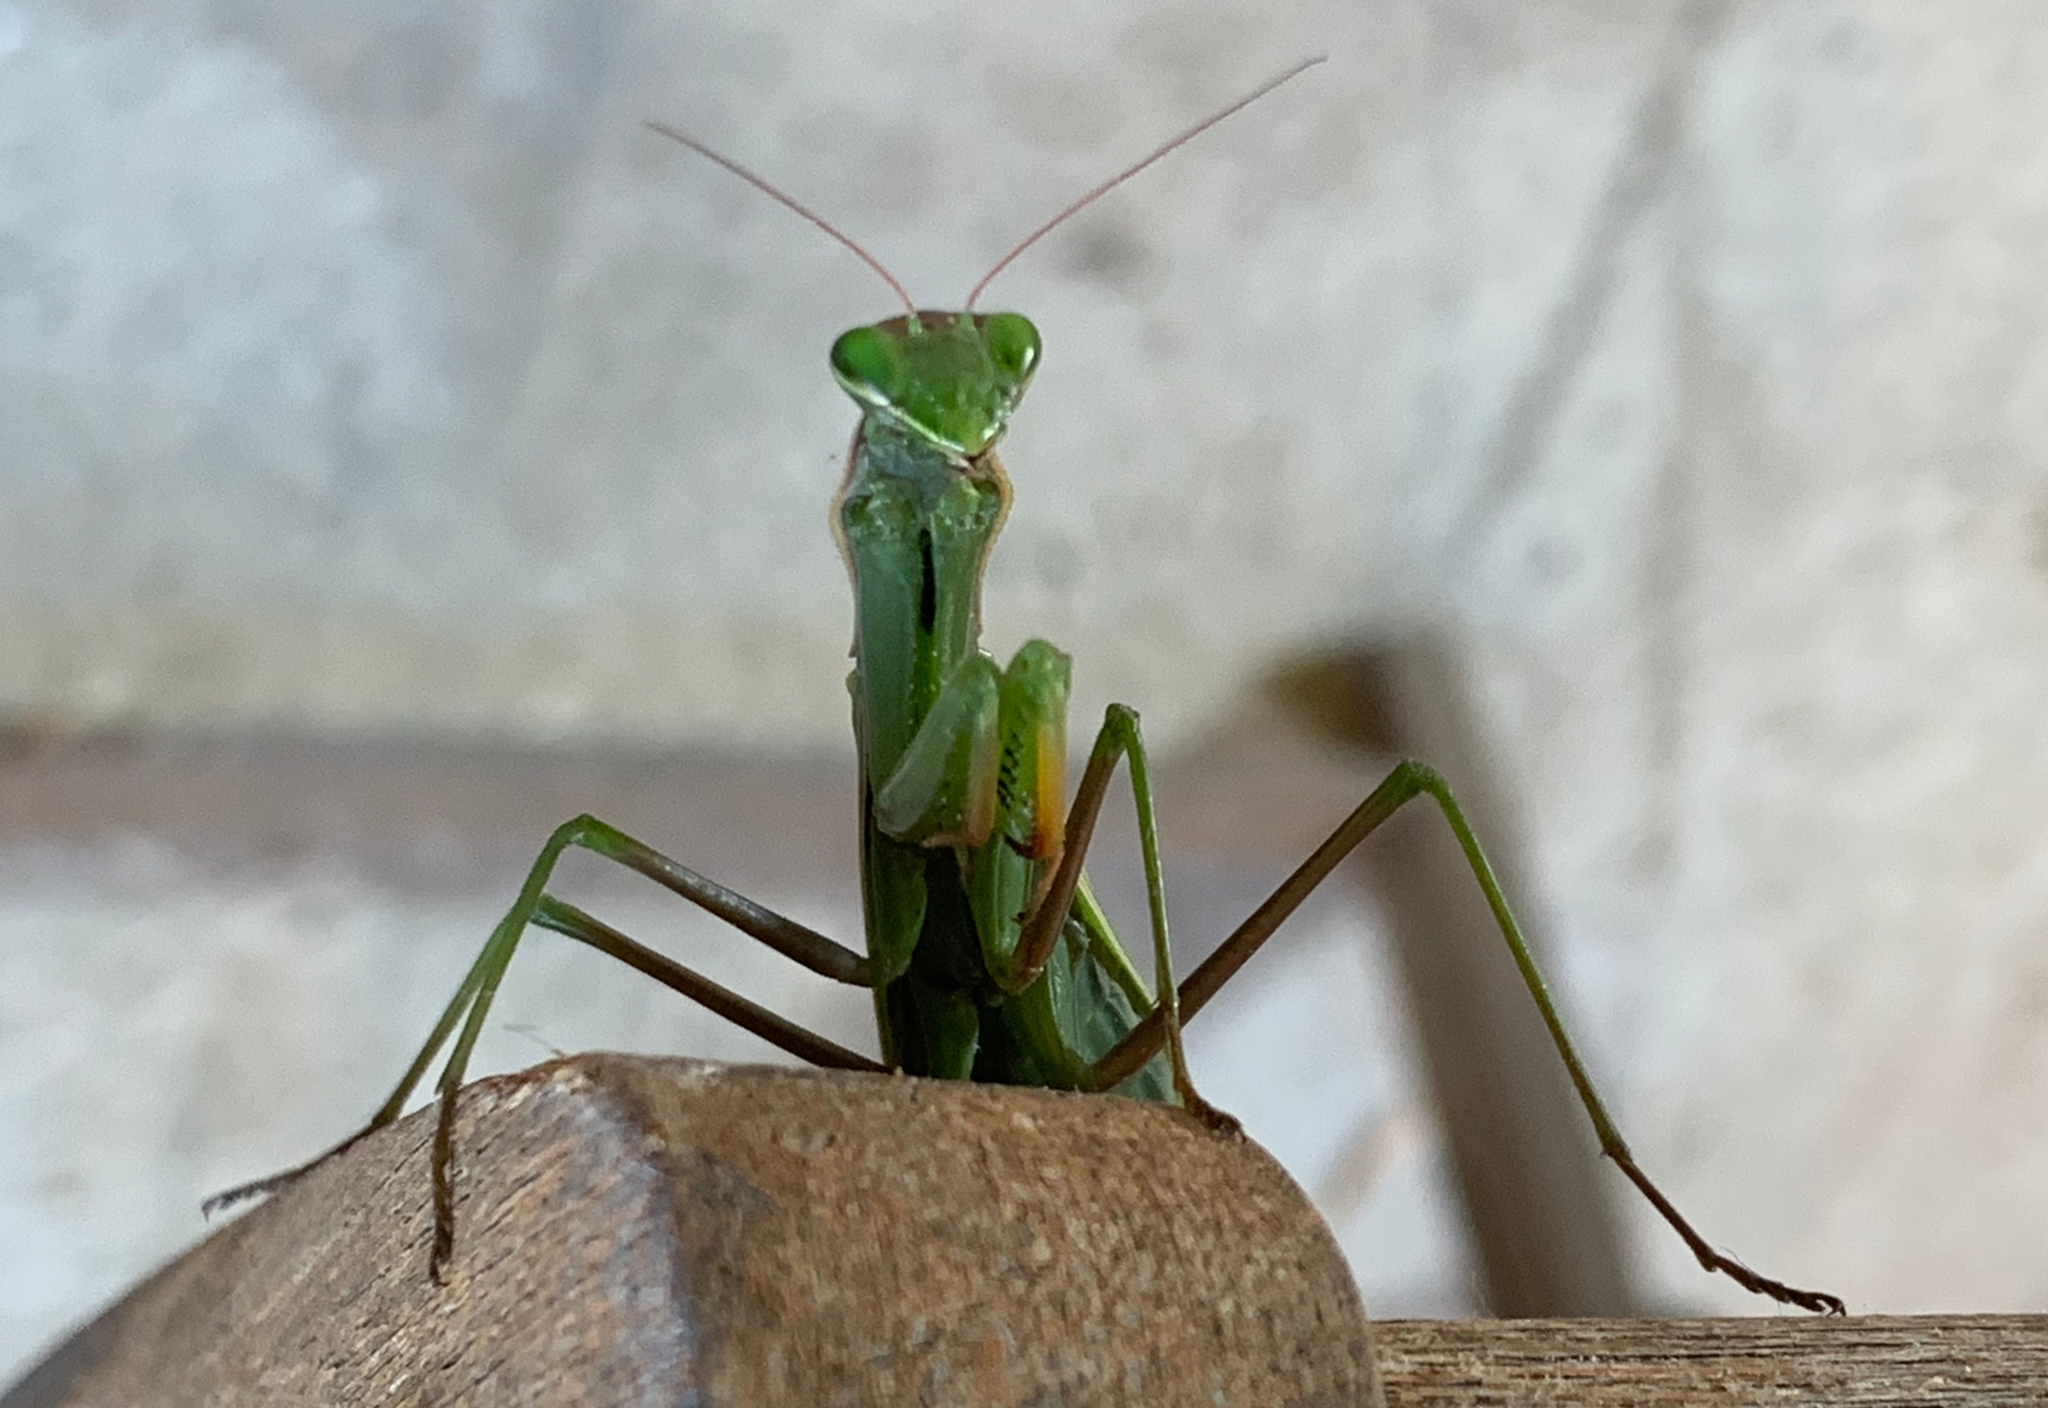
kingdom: Animalia
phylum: Arthropoda
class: Insecta
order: Mantodea
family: Mantidae
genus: Mantis
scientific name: Mantis religiosa
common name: Praying mantis
